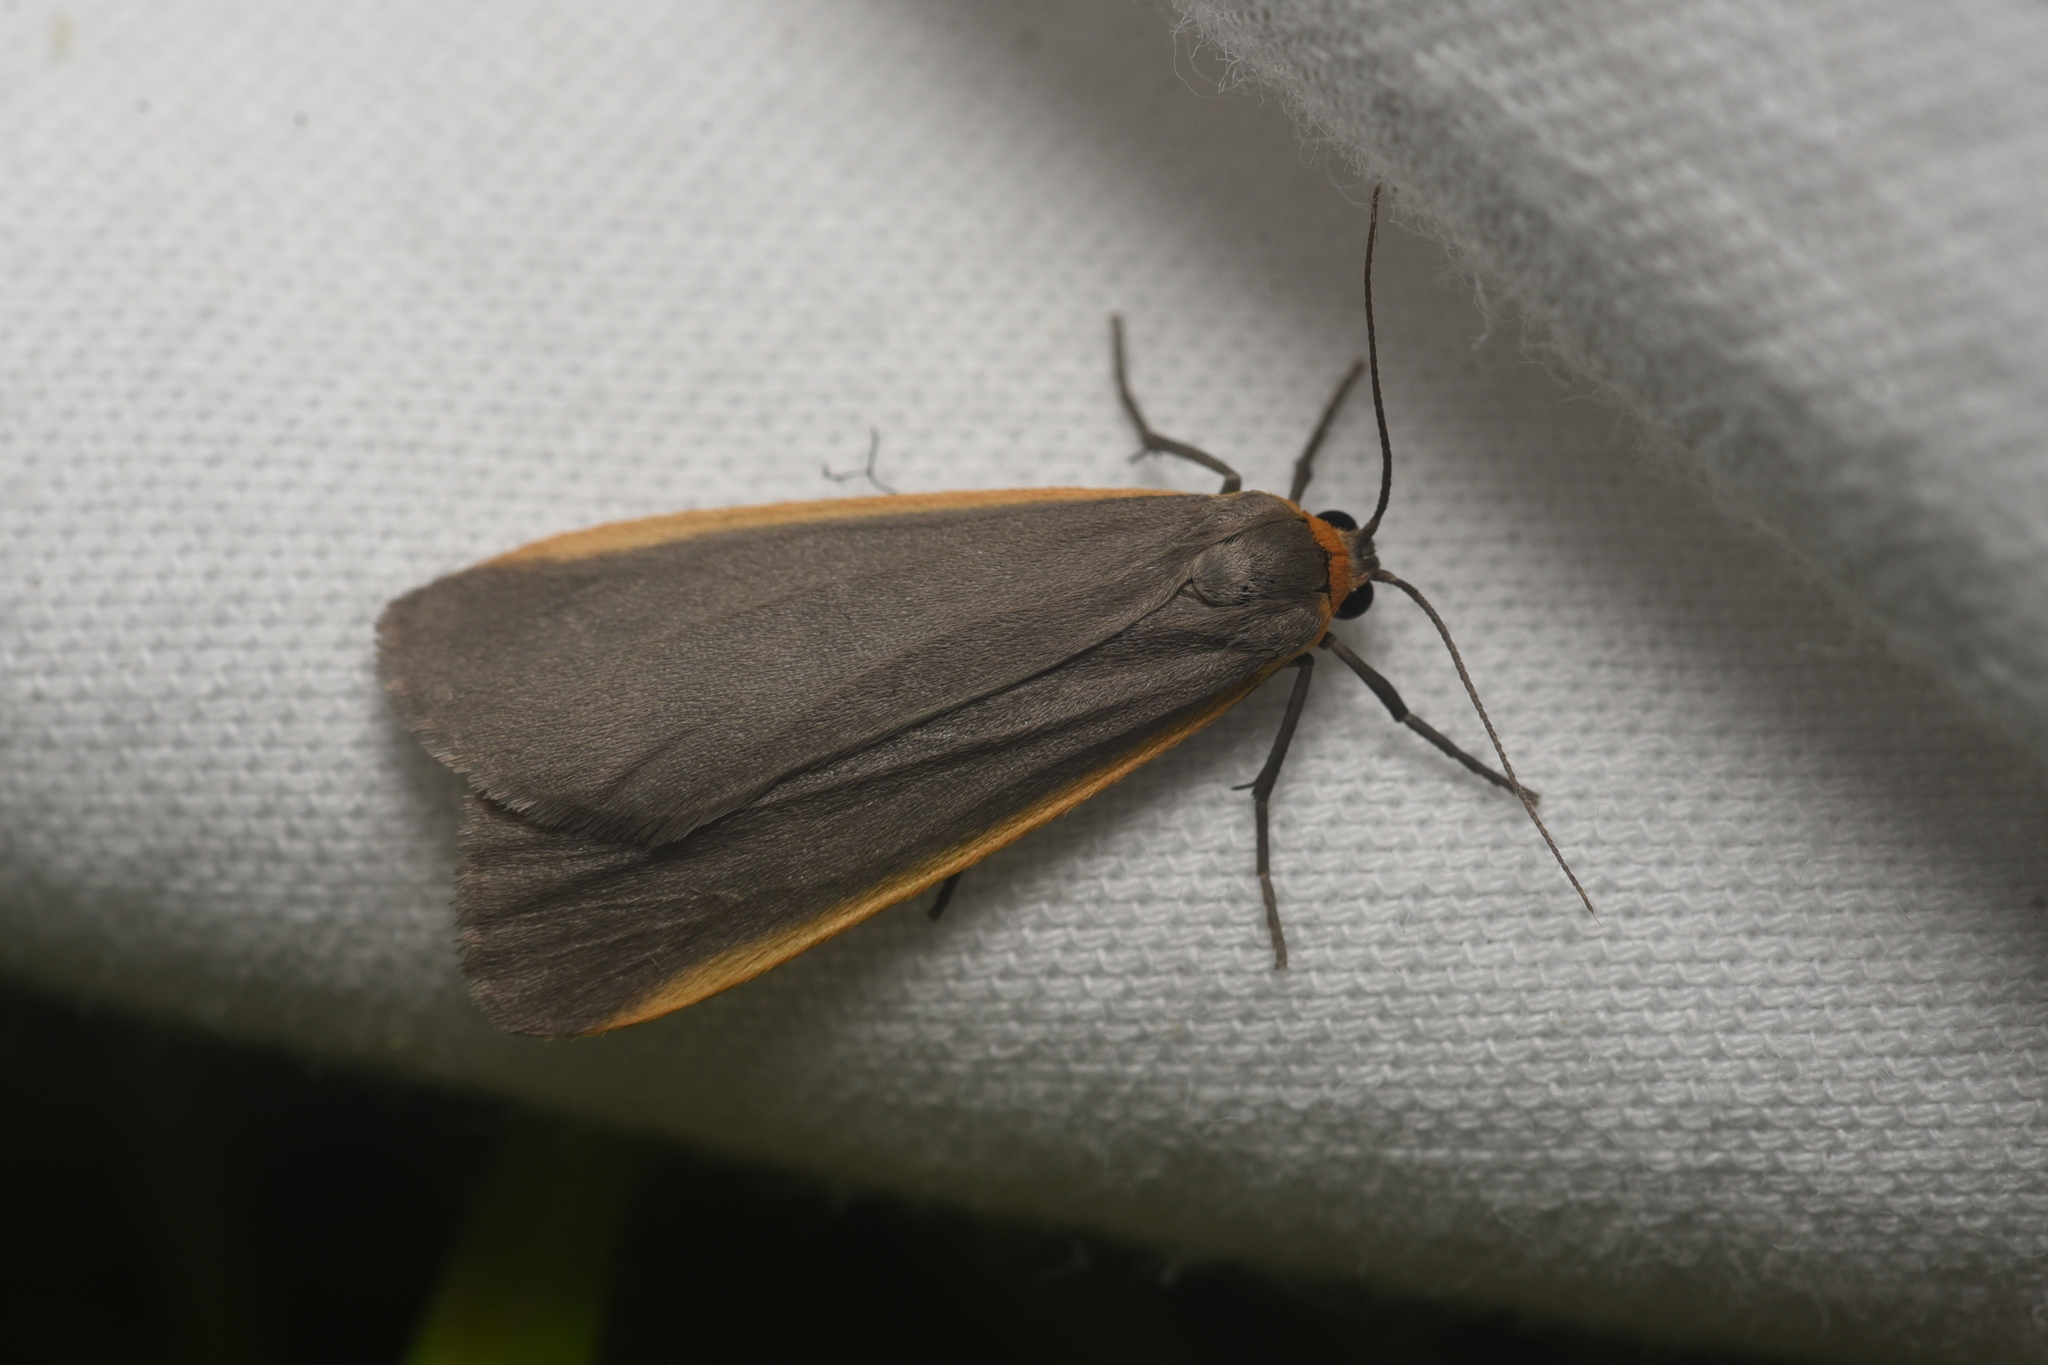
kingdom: Animalia
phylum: Arthropoda
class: Insecta
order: Lepidoptera
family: Erebidae
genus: Manulea
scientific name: Manulea bicolor
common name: Bicolored moth
